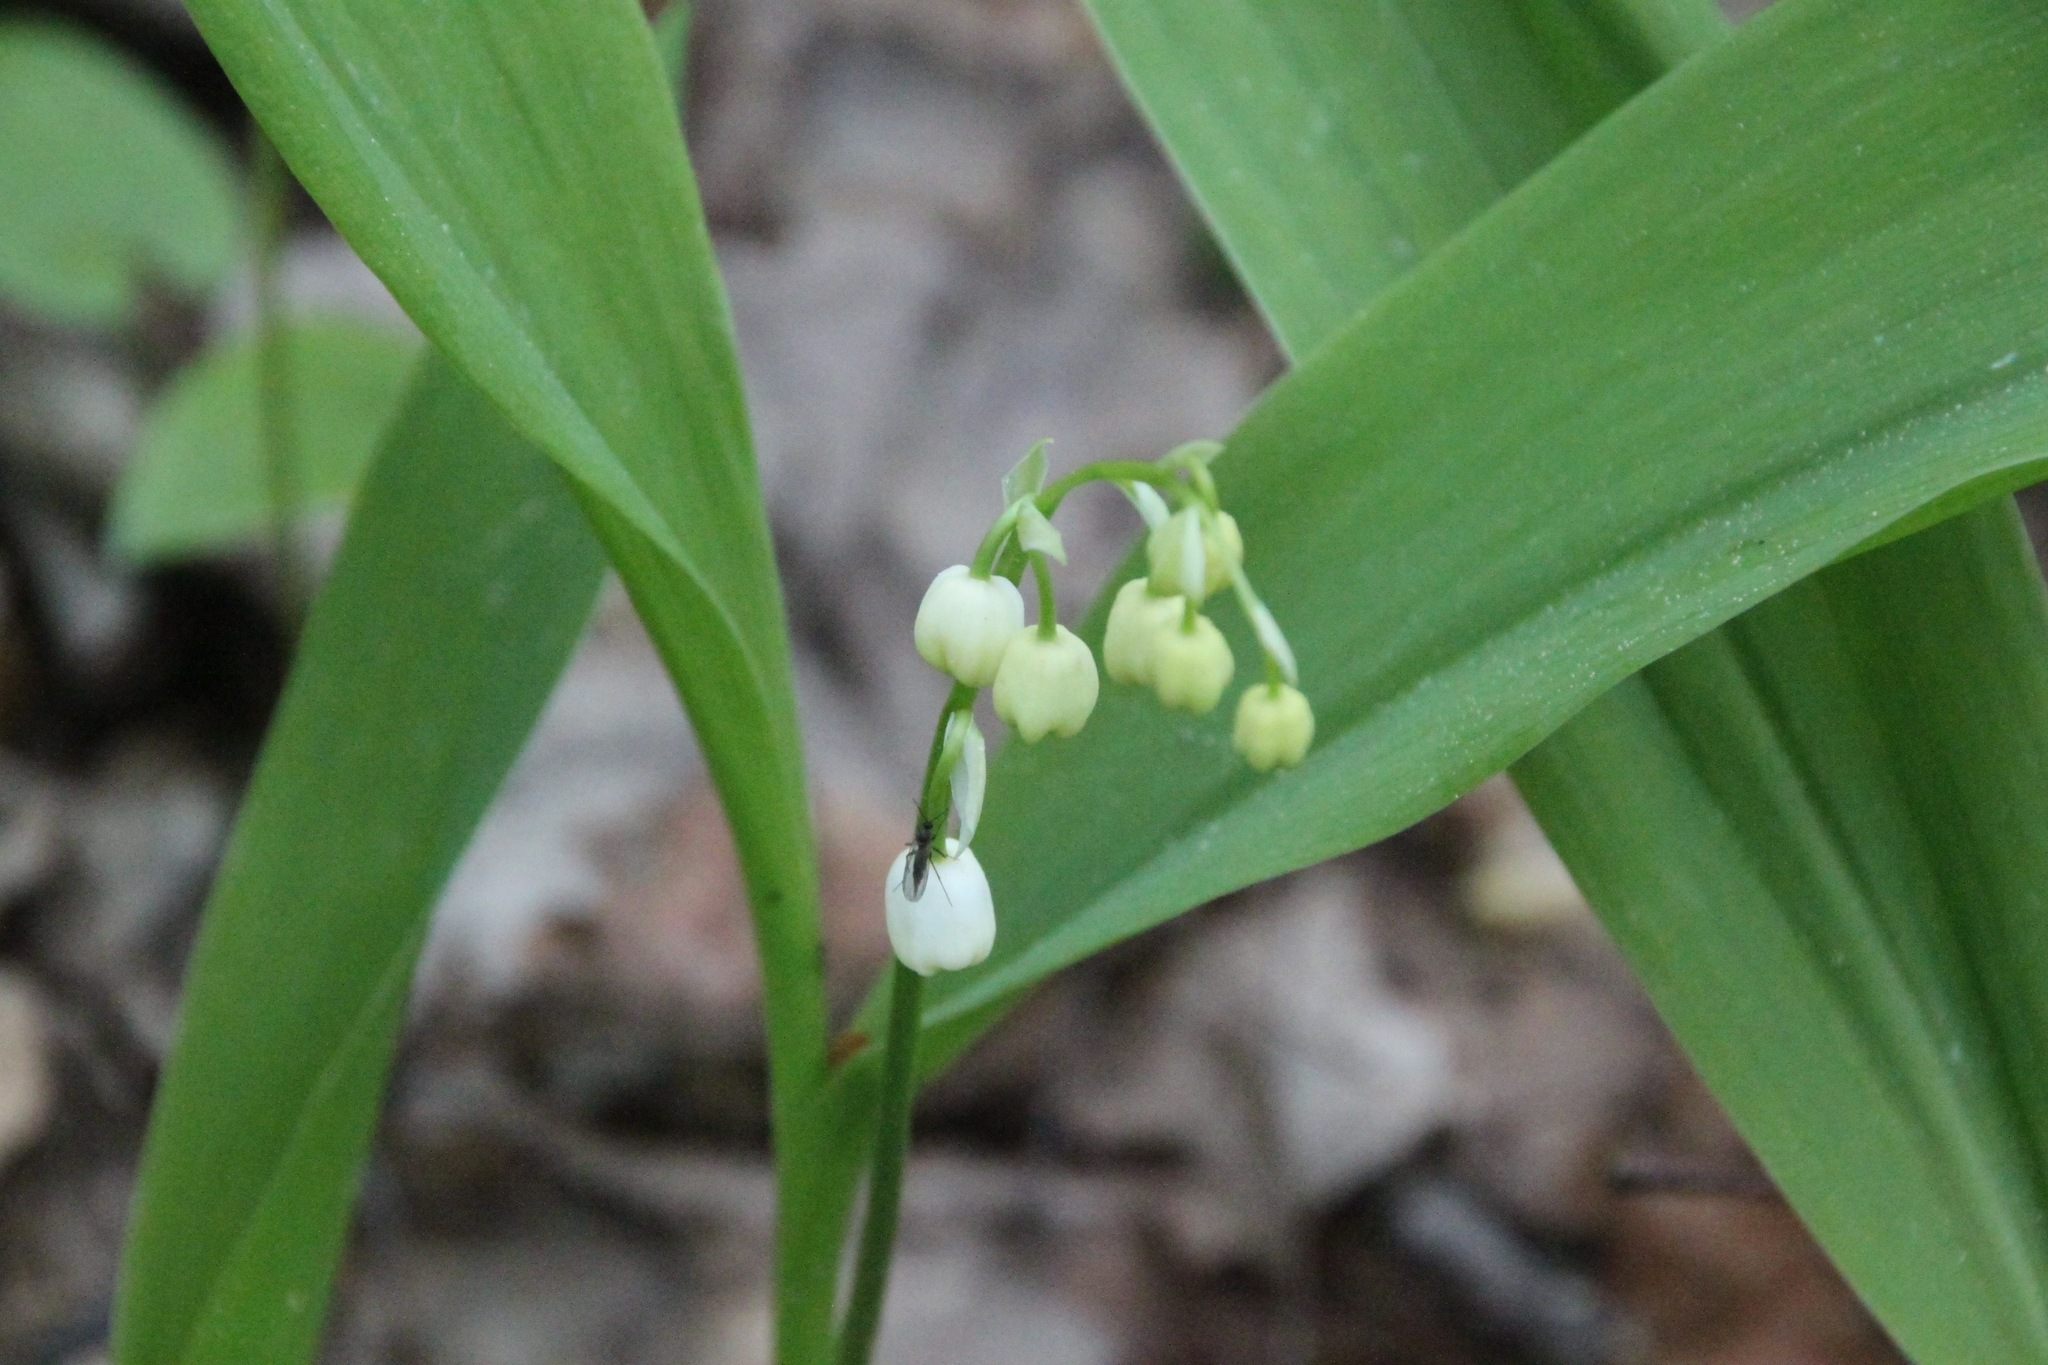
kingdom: Plantae
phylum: Tracheophyta
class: Liliopsida
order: Asparagales
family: Asparagaceae
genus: Convallaria
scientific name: Convallaria majalis
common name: Lily-of-the-valley
